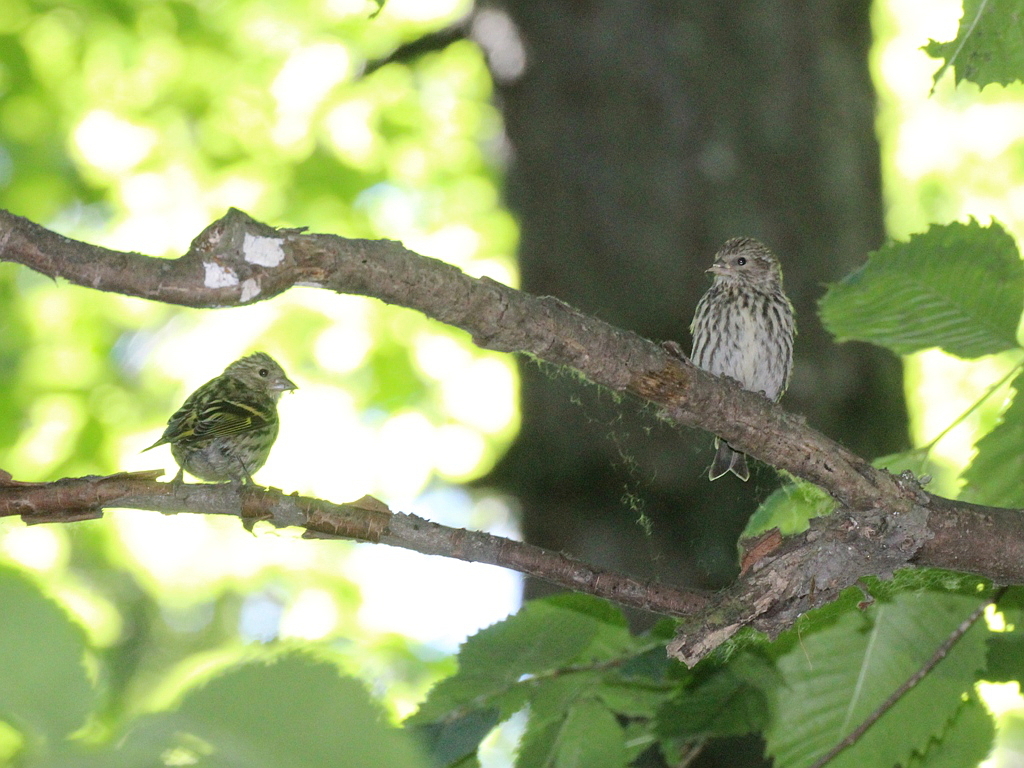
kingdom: Animalia
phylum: Chordata
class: Aves
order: Passeriformes
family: Fringillidae
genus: Spinus
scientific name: Spinus spinus
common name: Eurasian siskin
